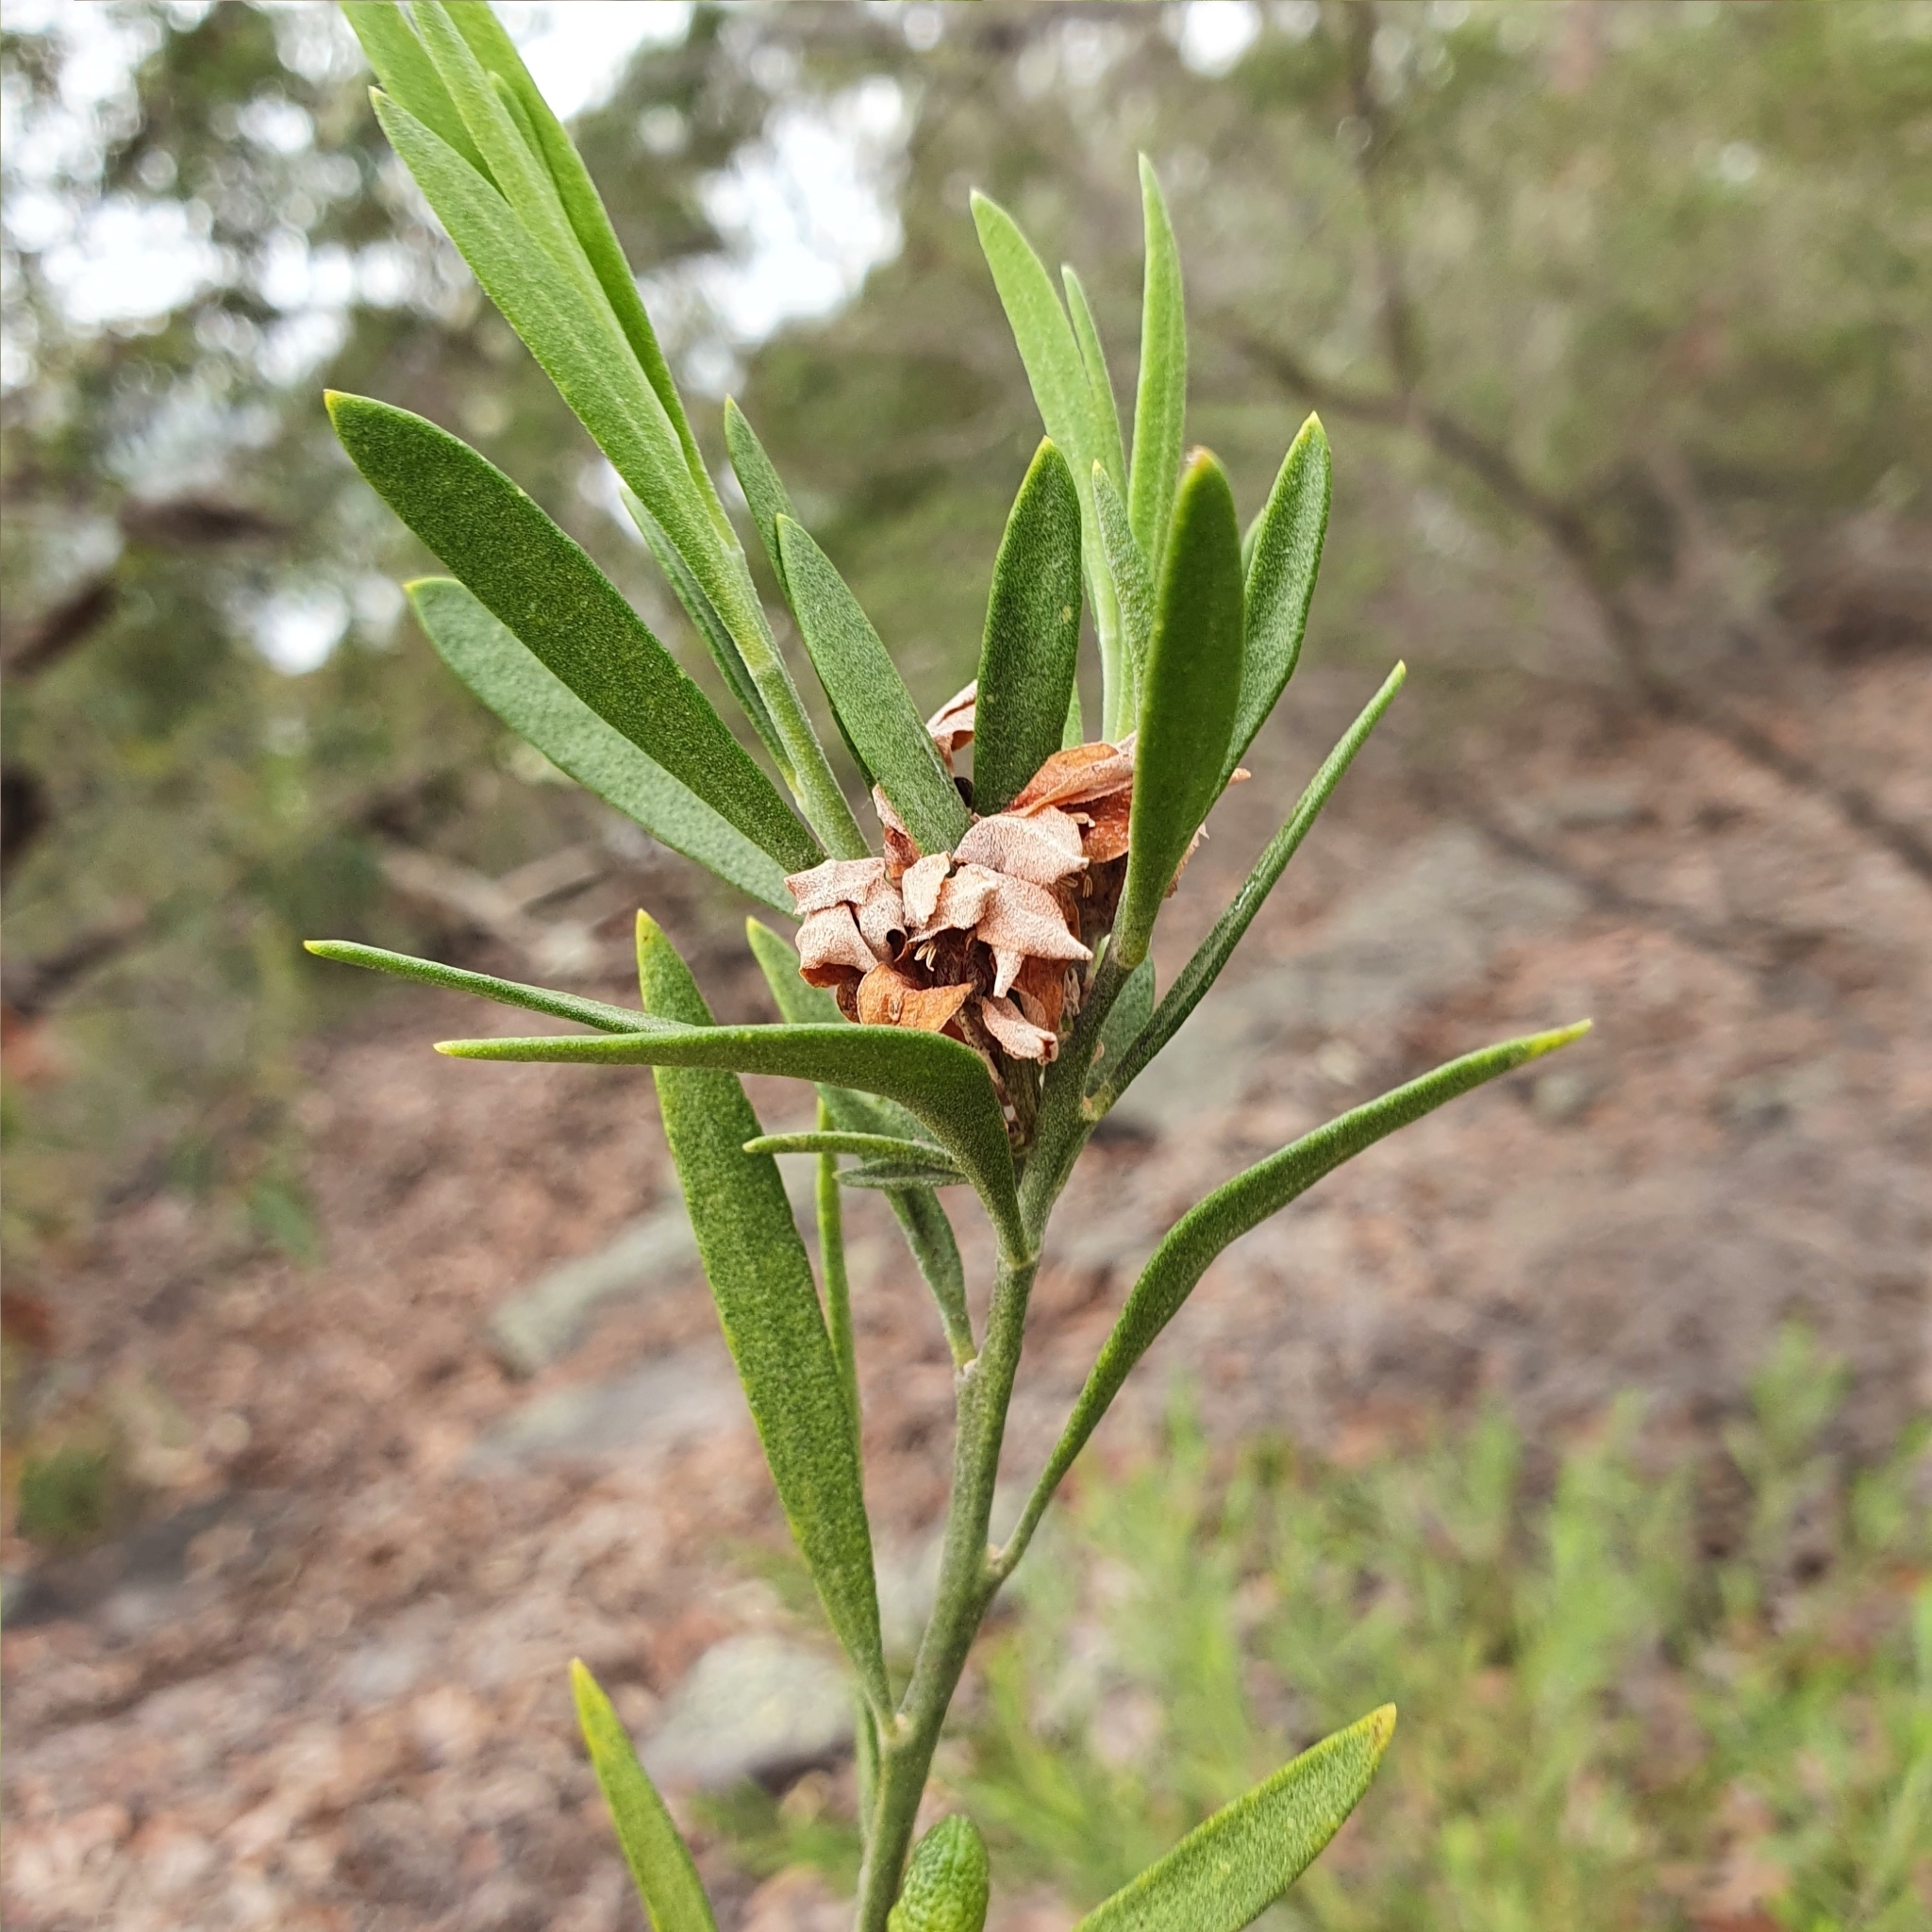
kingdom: Plantae
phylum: Tracheophyta
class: Magnoliopsida
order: Sapindales
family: Rutaceae
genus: Eriostemon
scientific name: Eriostemon australasius
